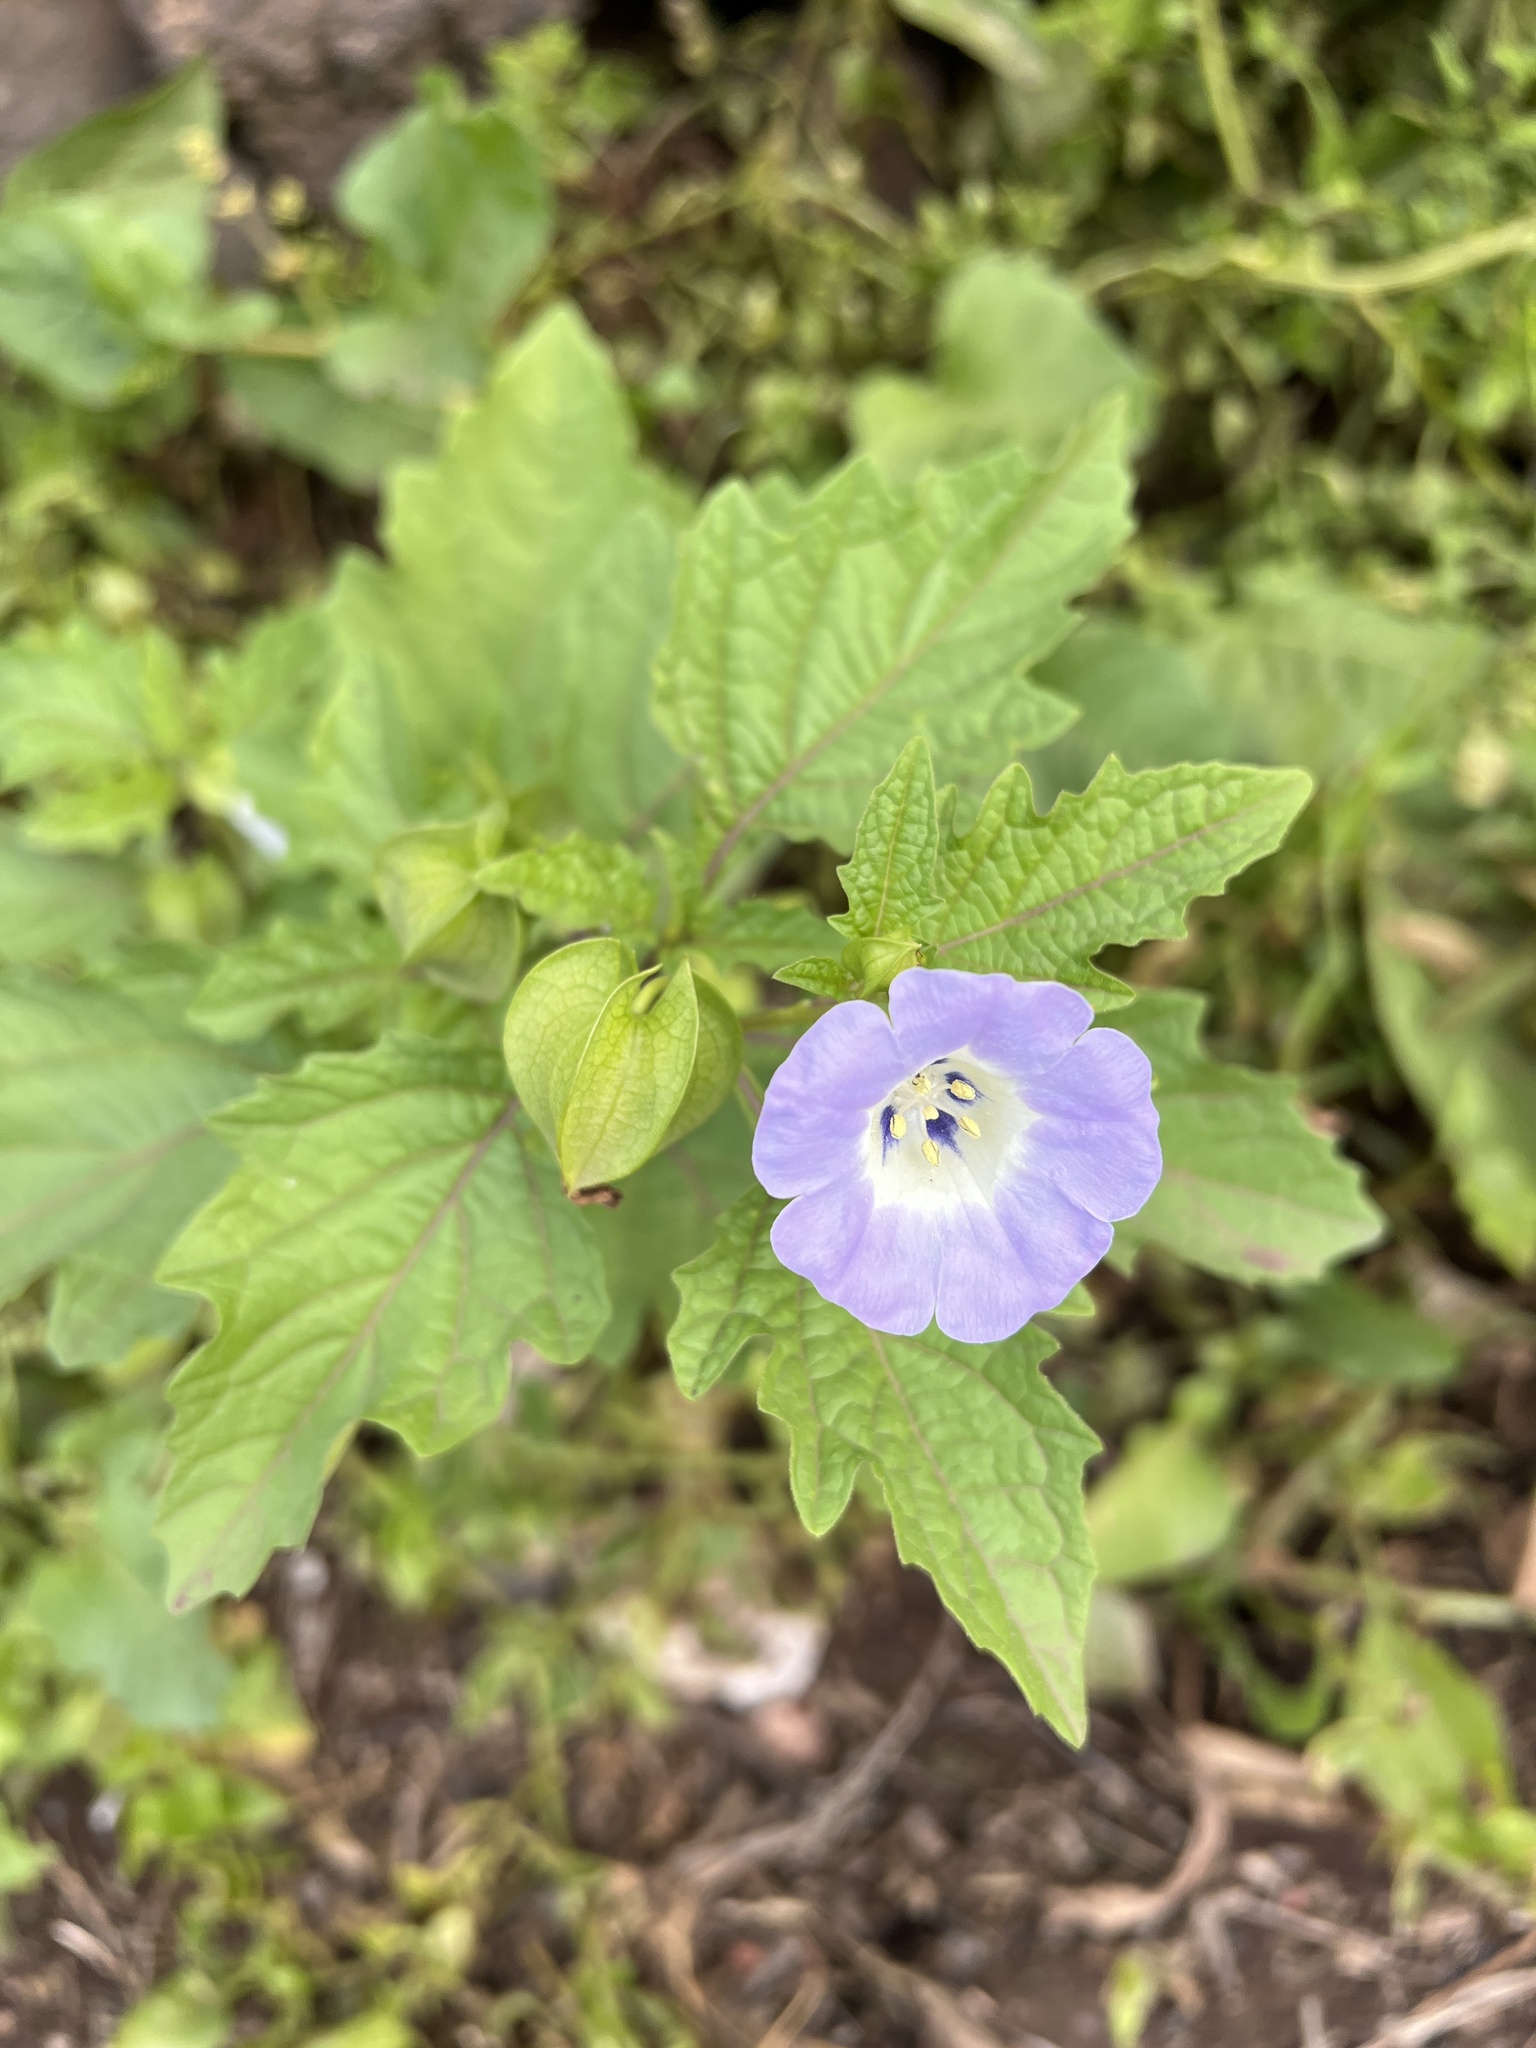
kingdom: Plantae
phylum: Tracheophyta
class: Magnoliopsida
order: Solanales
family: Solanaceae
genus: Nicandra
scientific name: Nicandra physalodes
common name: Apple-of-peru
